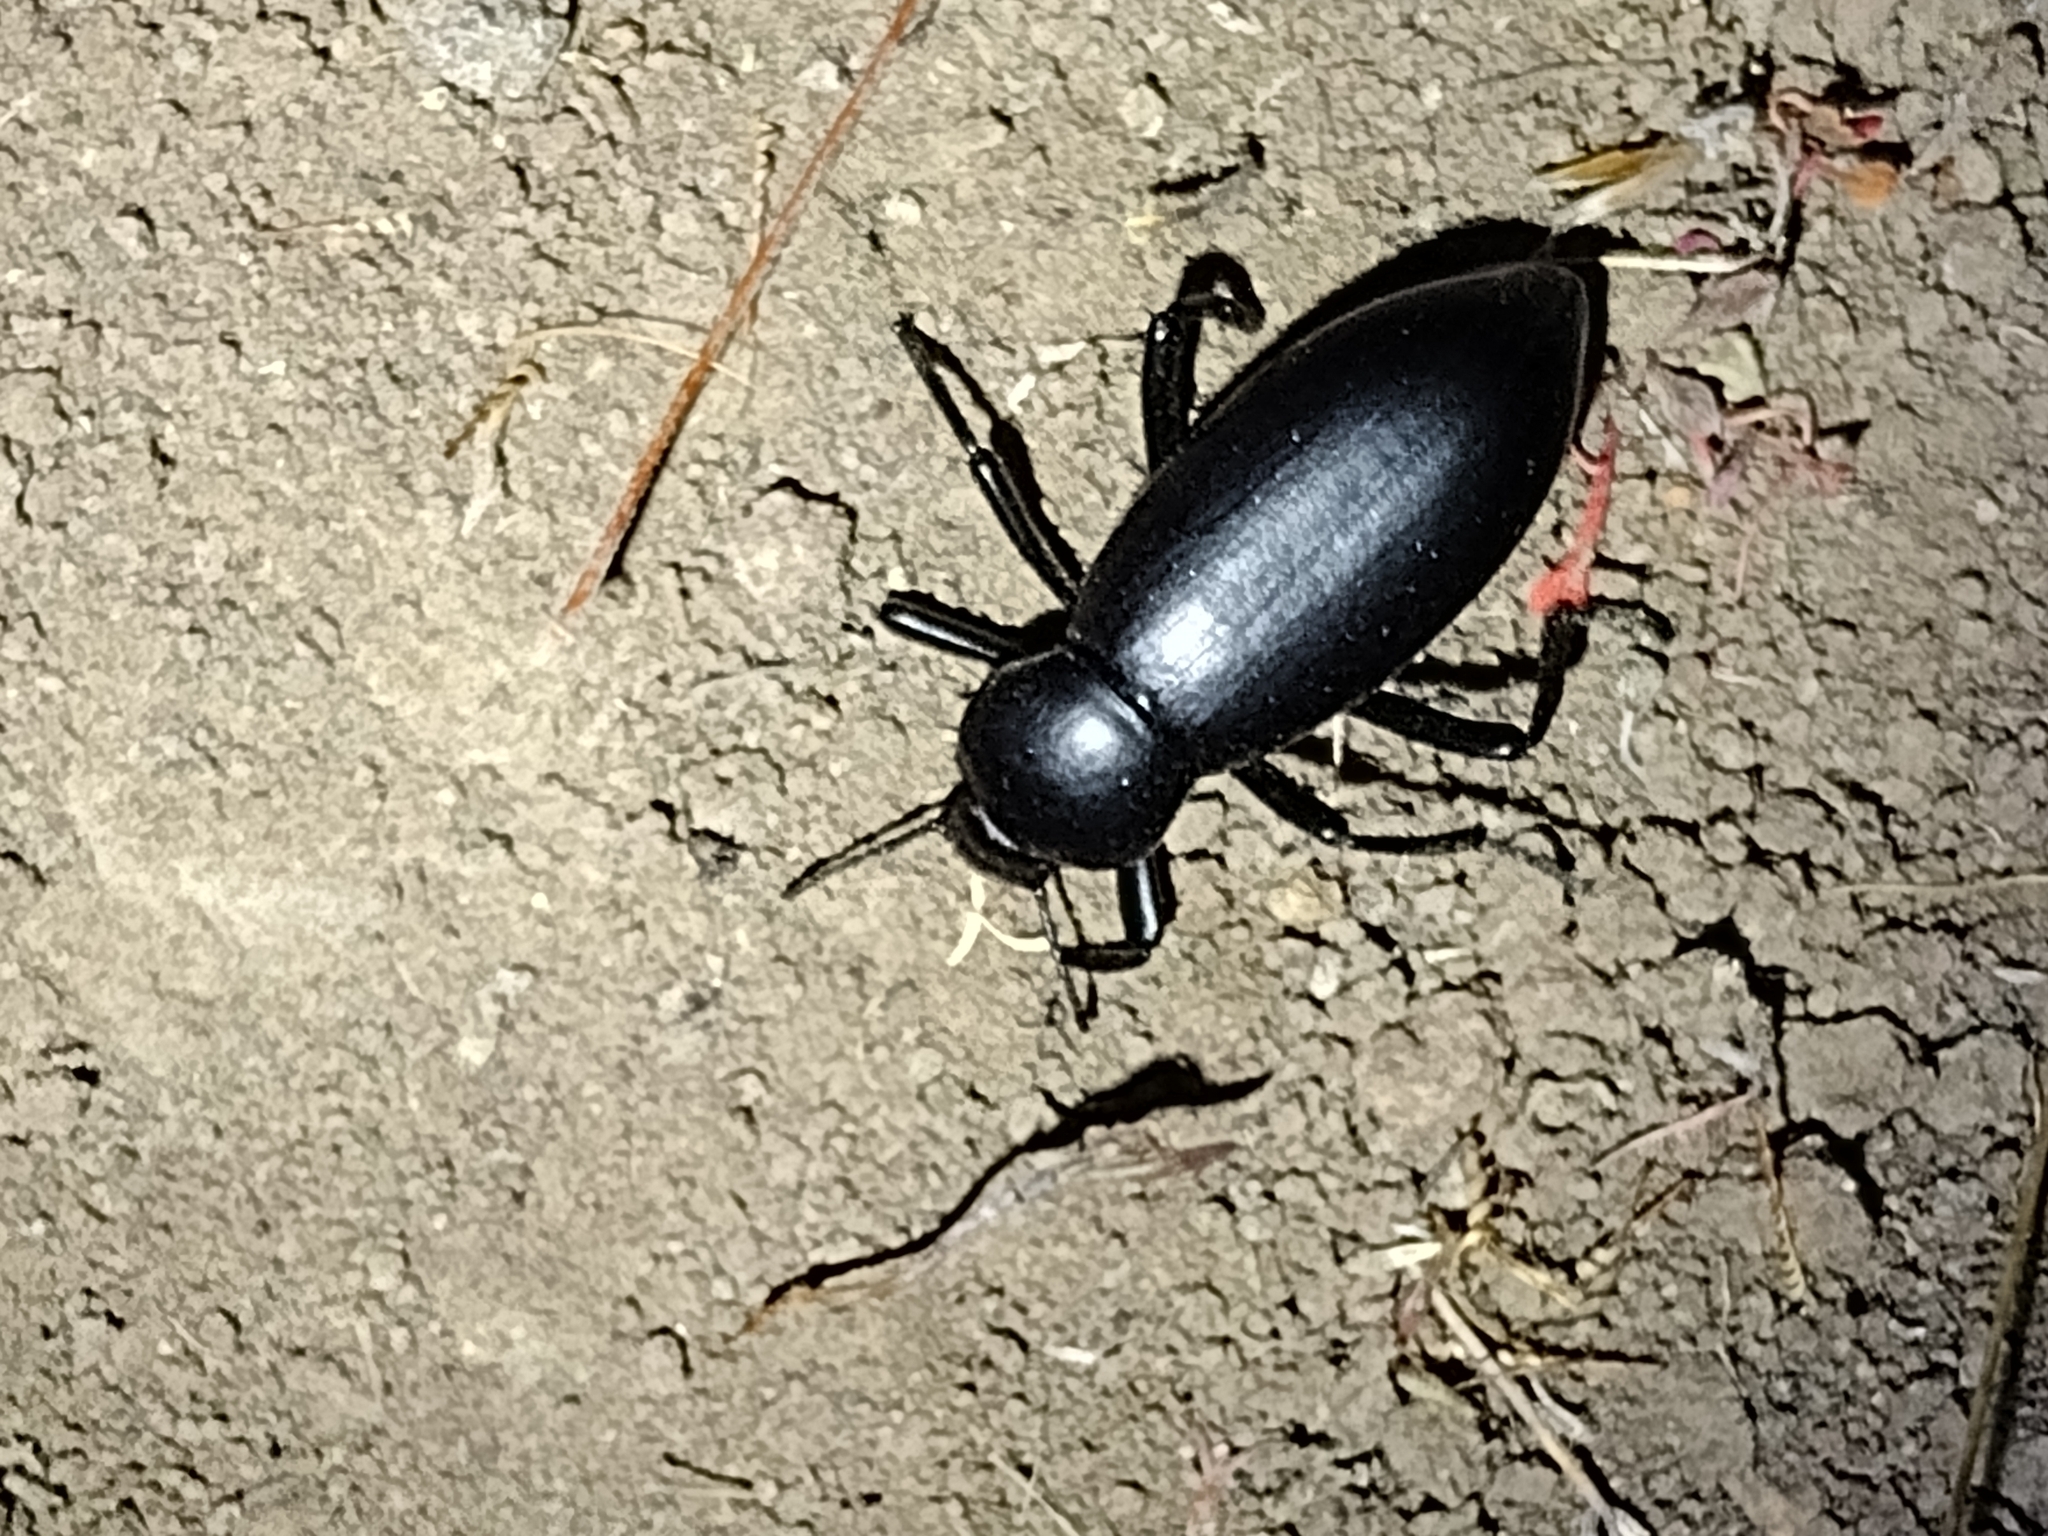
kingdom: Animalia
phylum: Arthropoda
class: Insecta
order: Coleoptera
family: Tenebrionidae
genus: Eleodes
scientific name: Eleodes gigantea
